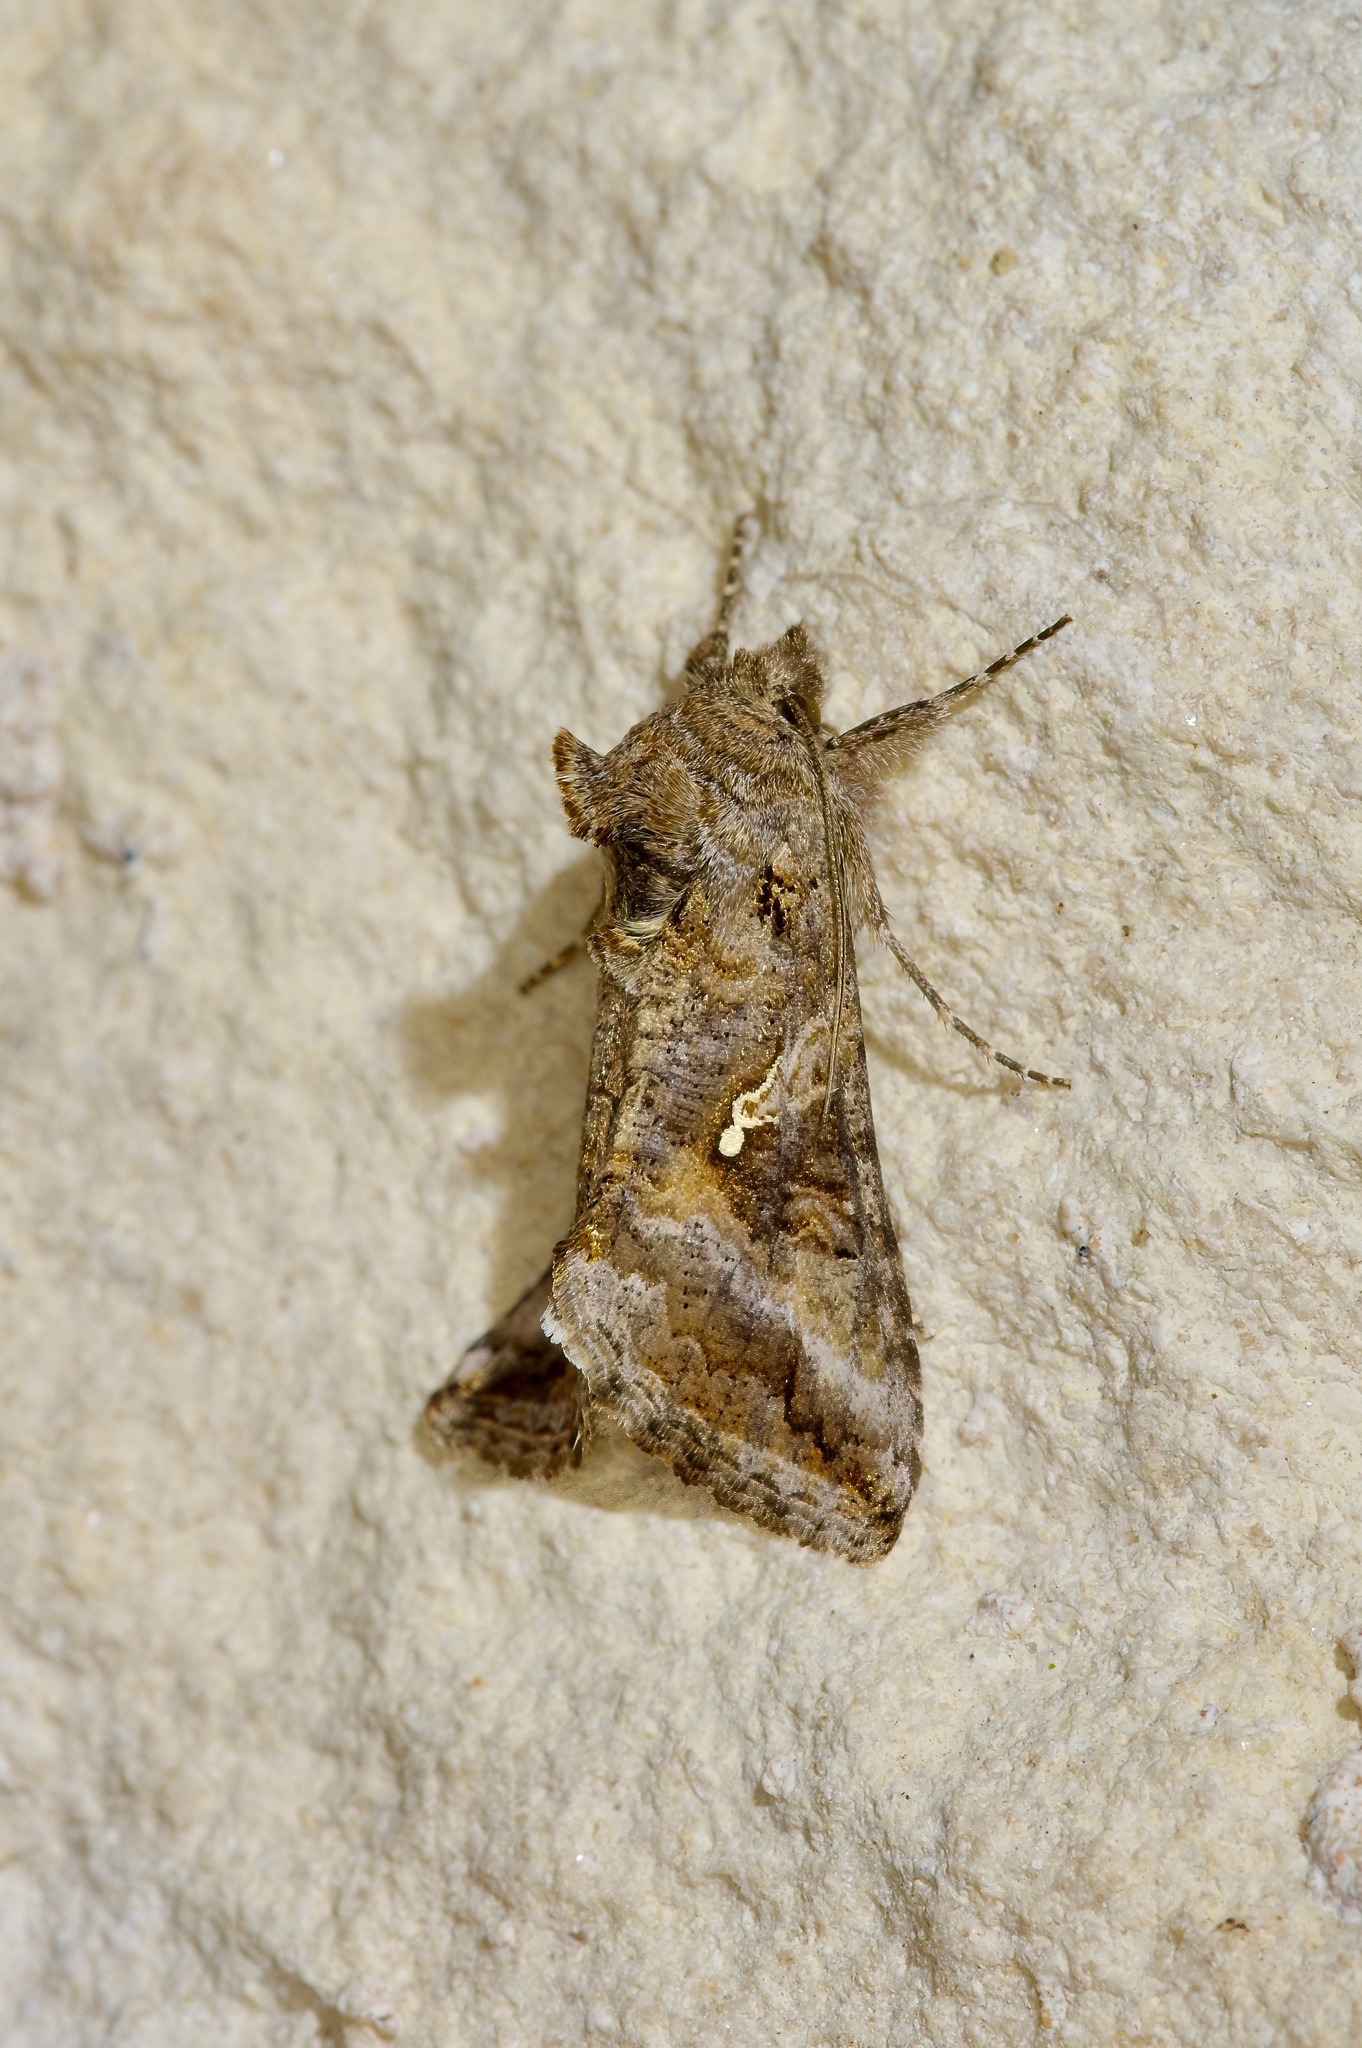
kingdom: Animalia
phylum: Arthropoda
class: Insecta
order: Lepidoptera
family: Noctuidae
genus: Rachiplusia
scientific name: Rachiplusia ou
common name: Gray looper moth
